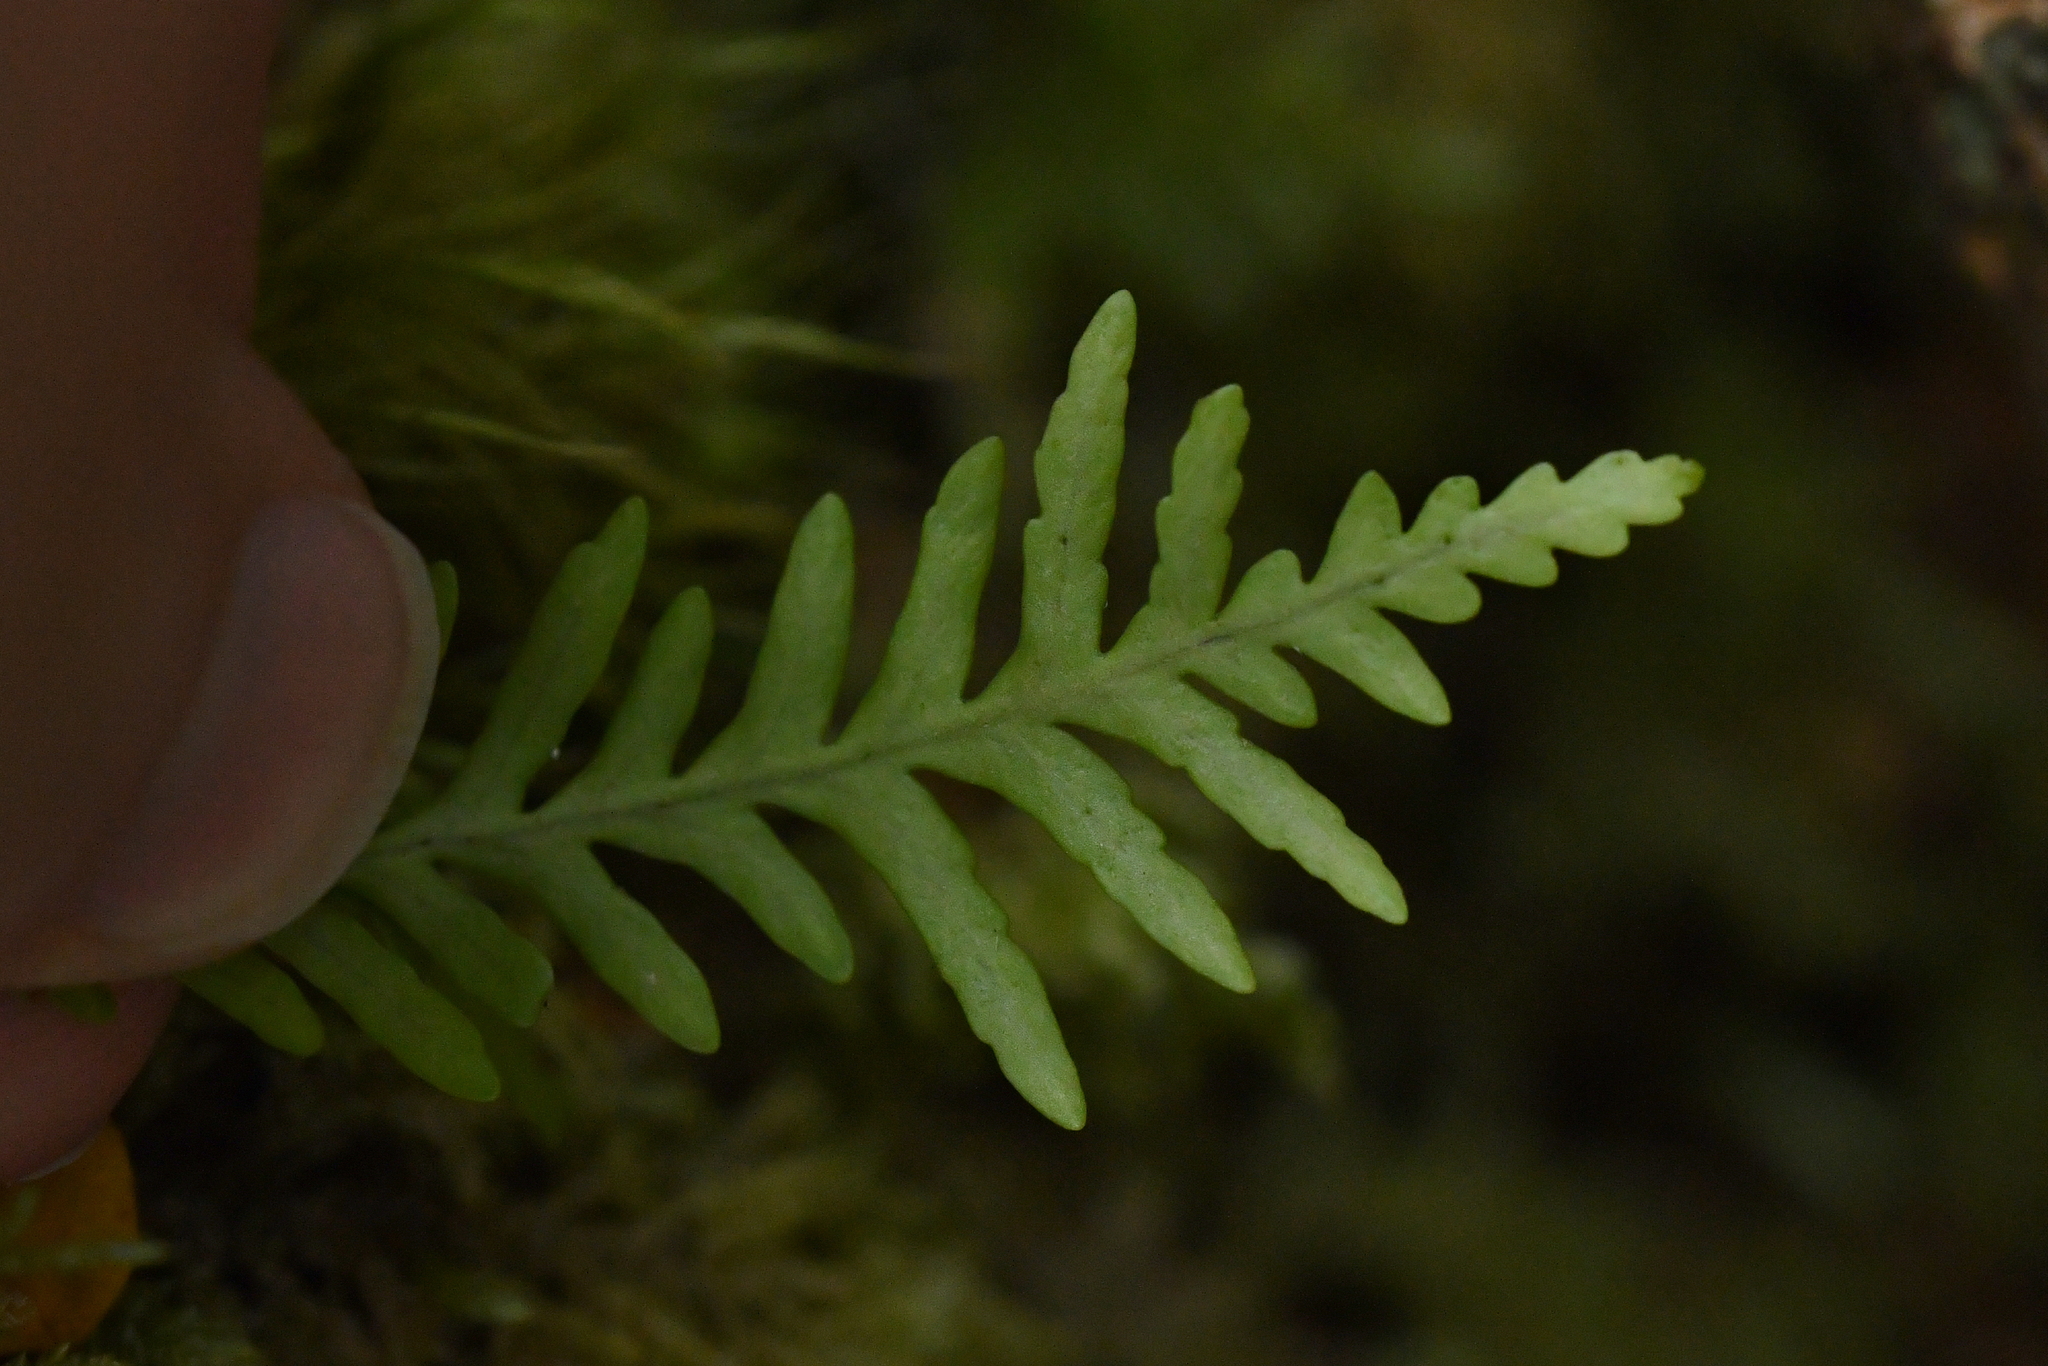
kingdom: Plantae
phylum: Tracheophyta
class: Polypodiopsida
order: Polypodiales
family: Polypodiaceae
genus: Notogrammitis
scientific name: Notogrammitis heterophylla
